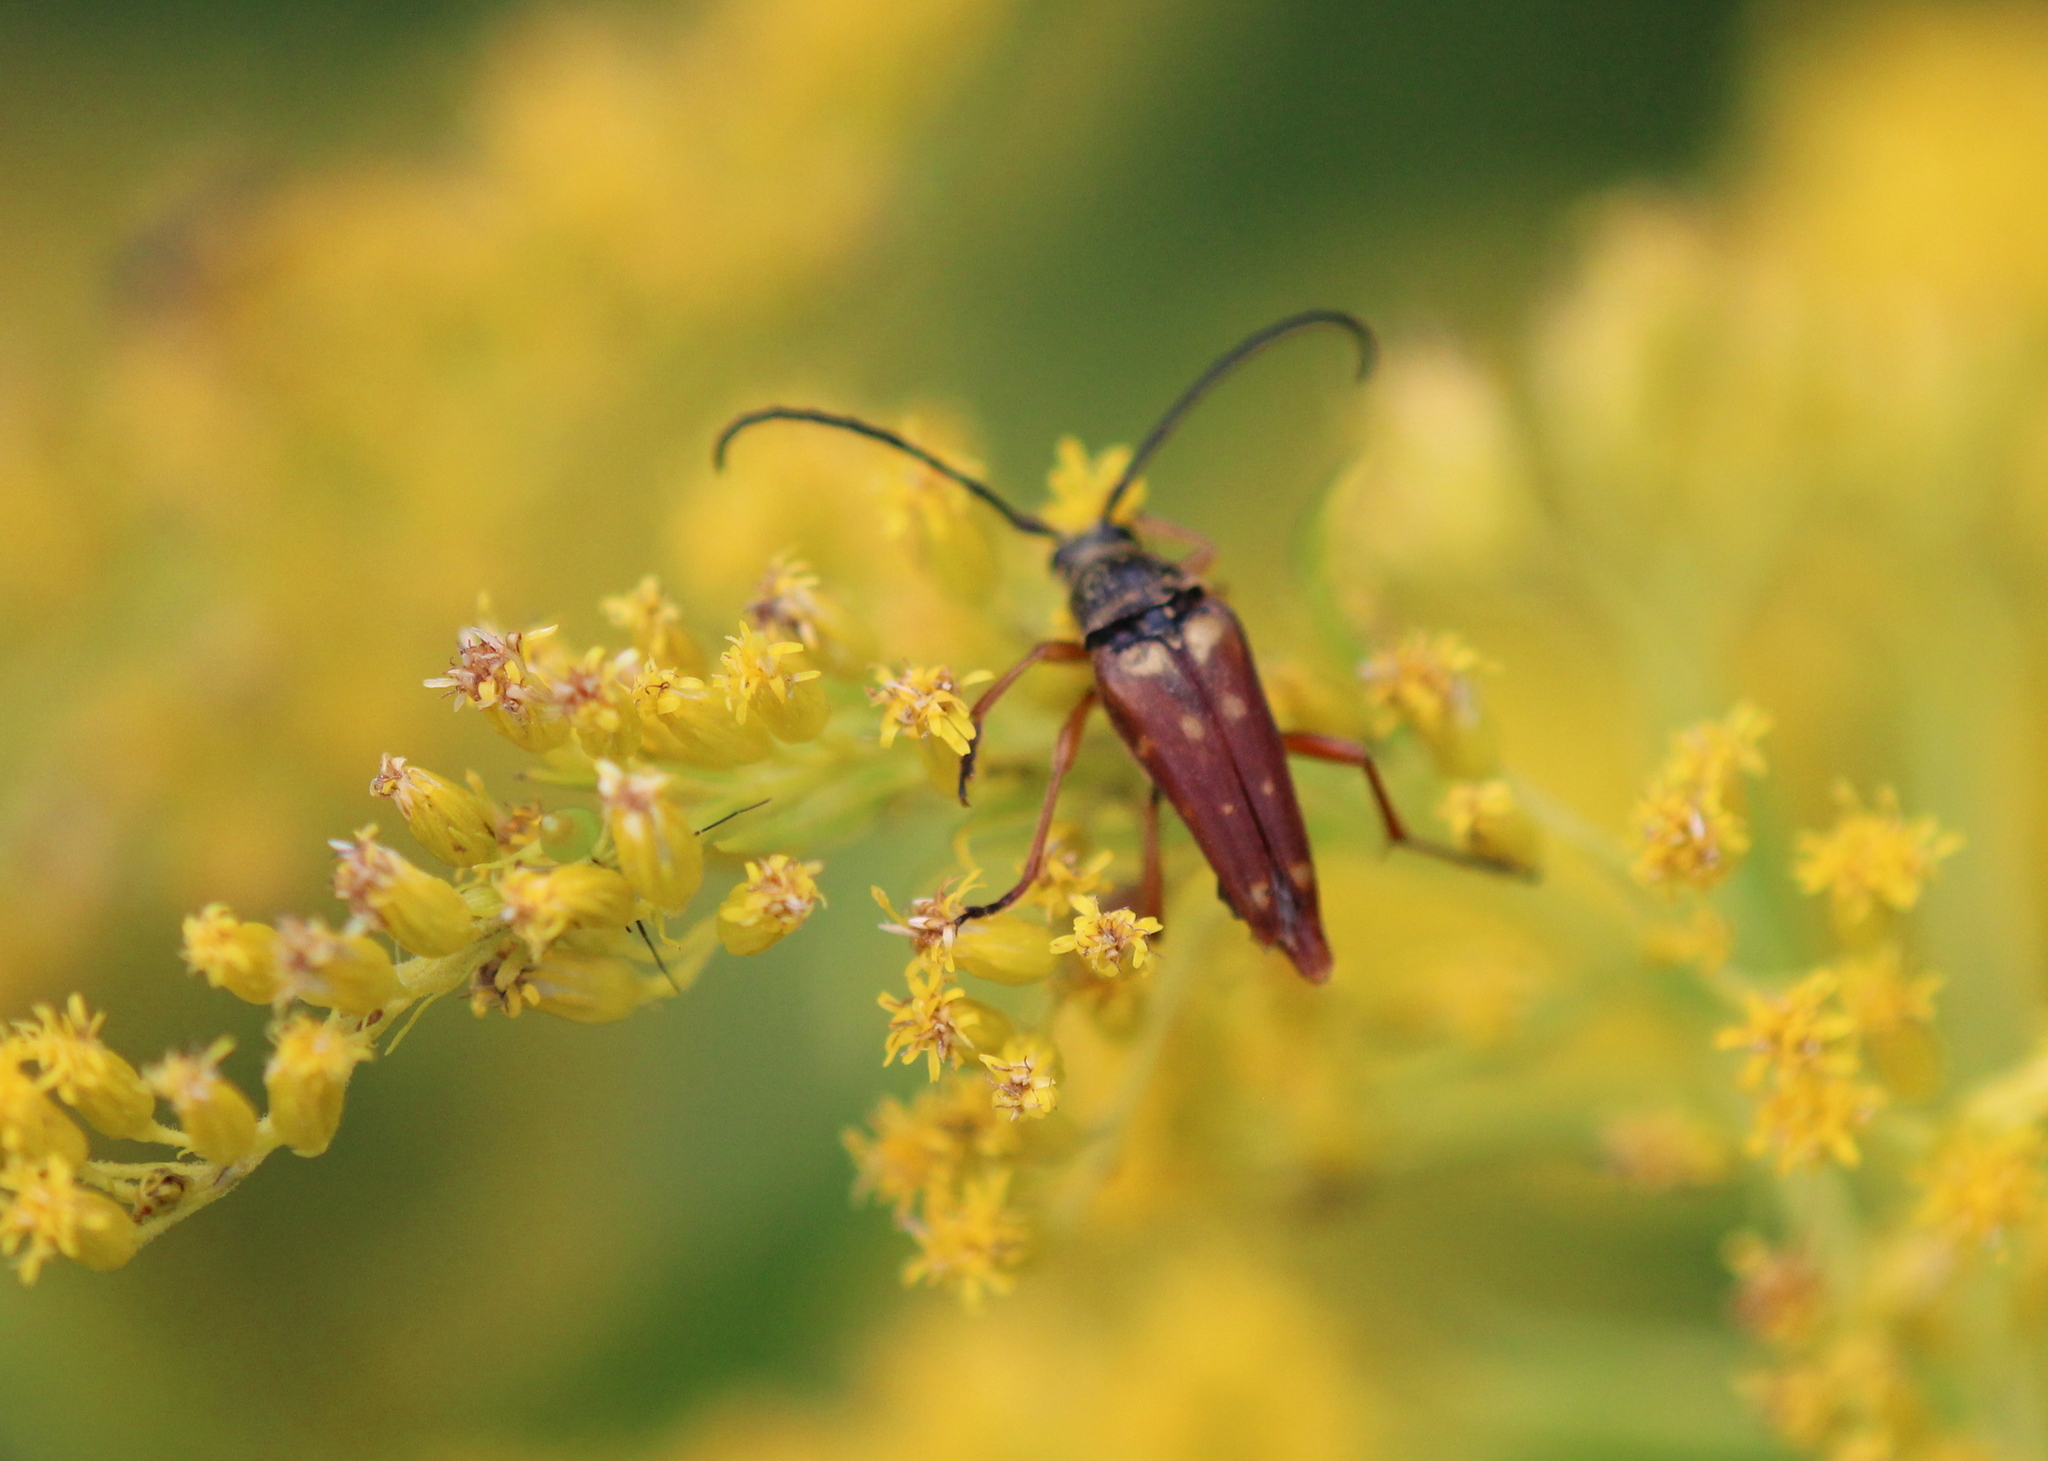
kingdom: Animalia
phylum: Arthropoda
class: Insecta
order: Coleoptera
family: Cerambycidae
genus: Typocerus
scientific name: Typocerus velutinus
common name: Banded longhorn beetle
